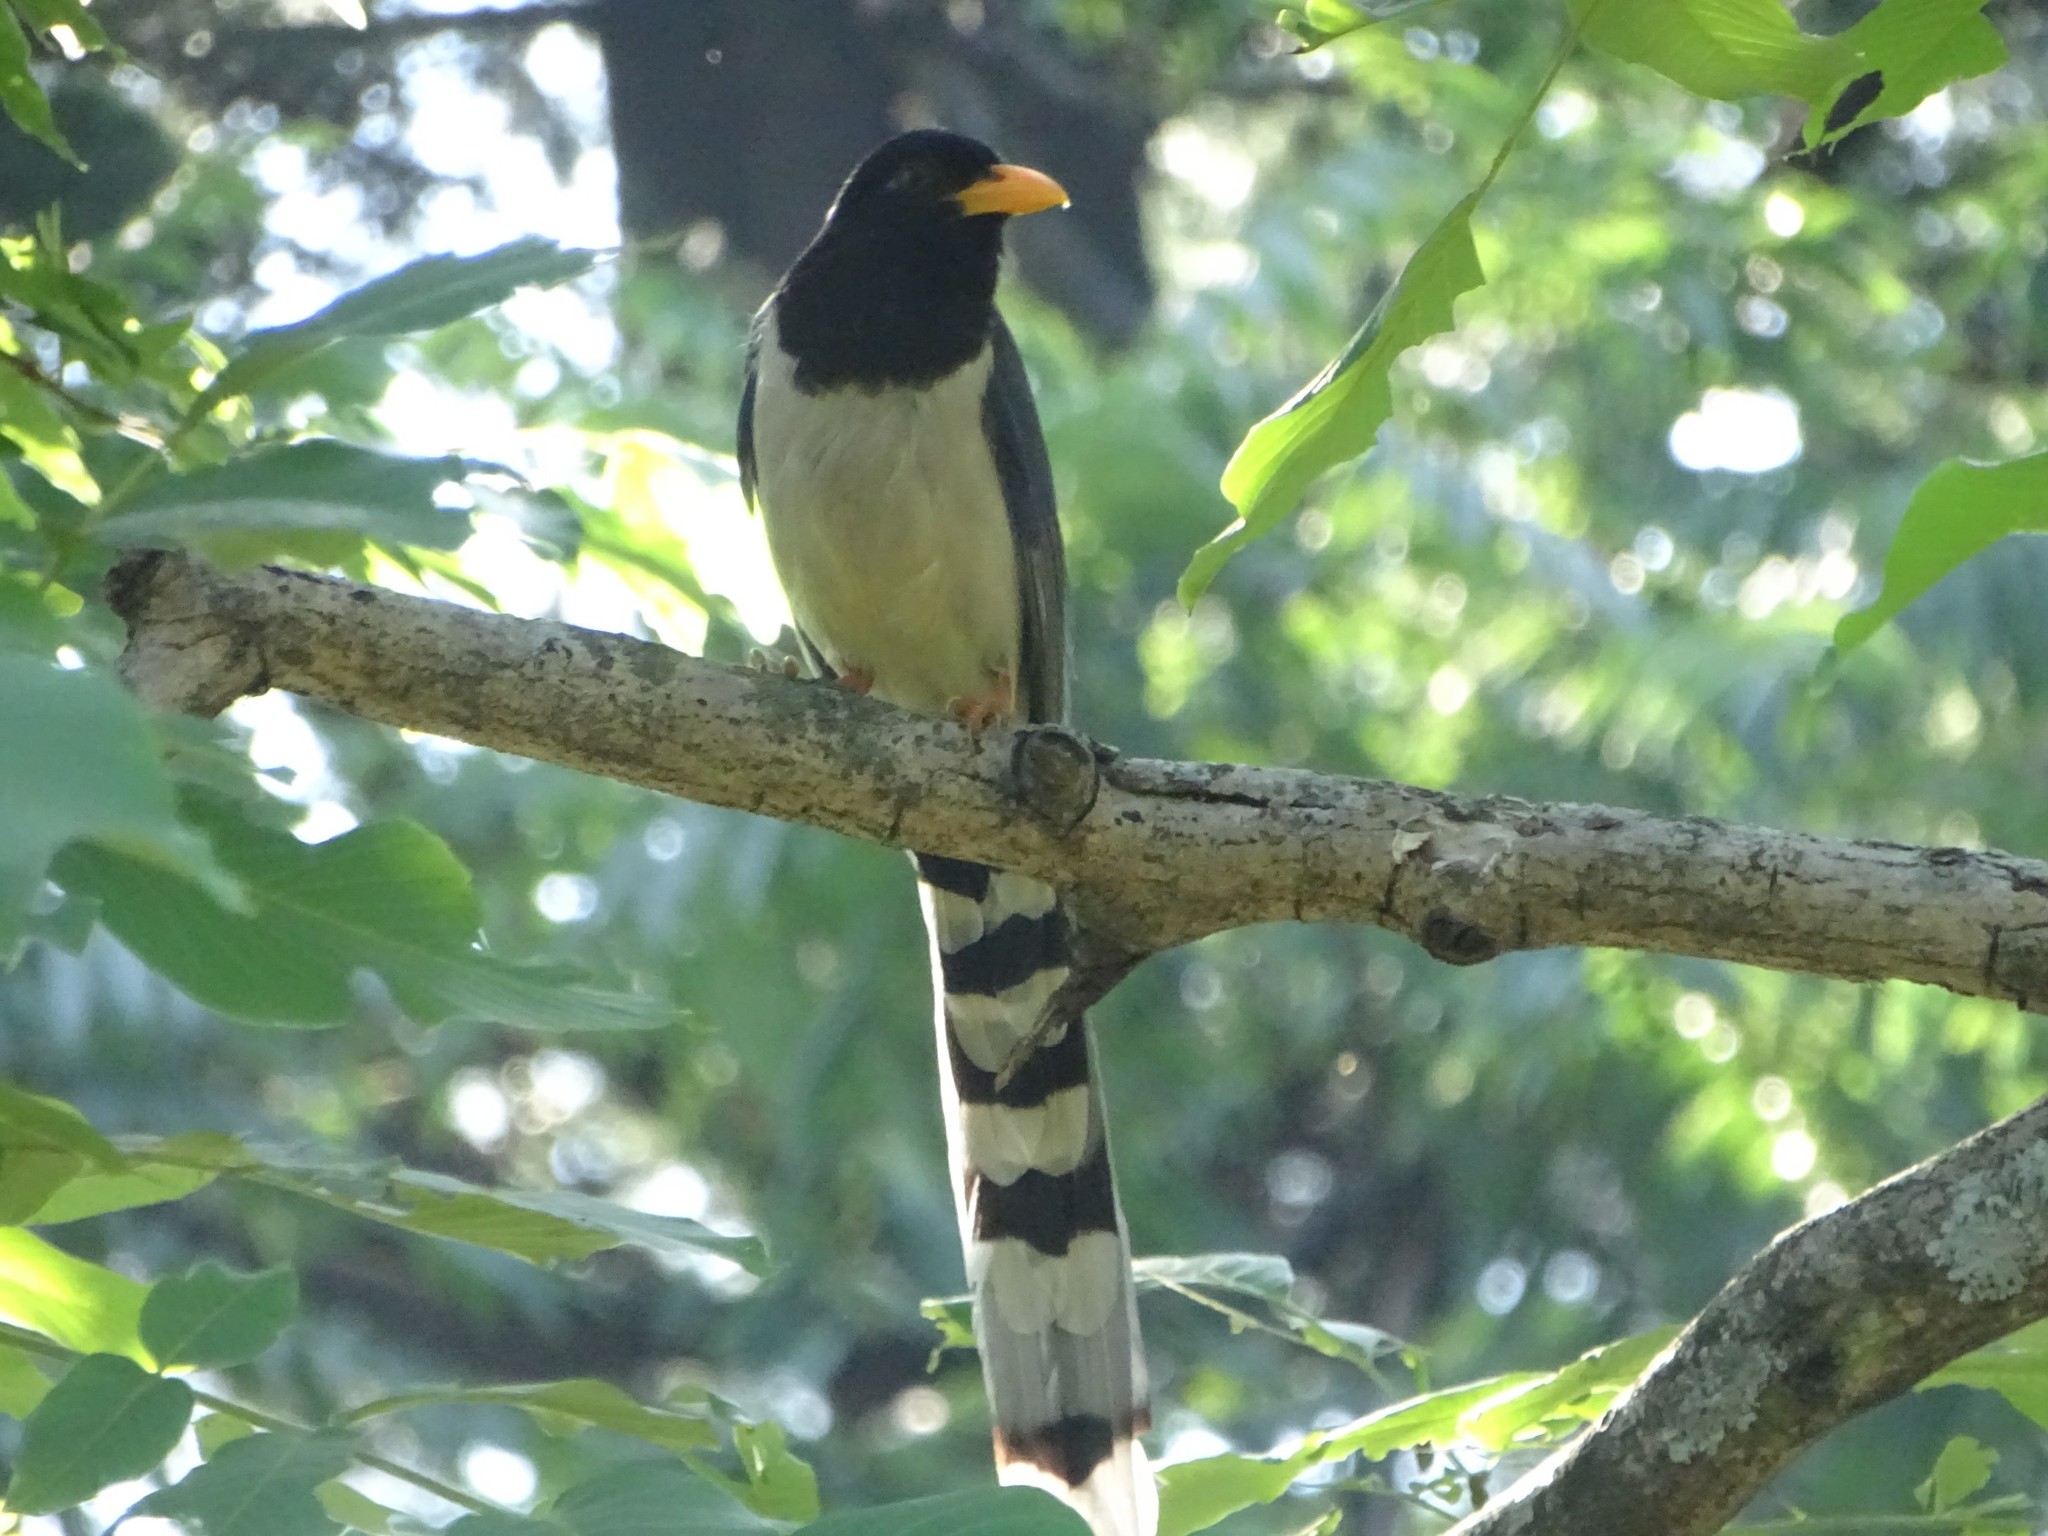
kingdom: Animalia
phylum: Chordata
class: Aves
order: Passeriformes
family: Corvidae
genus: Urocissa
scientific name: Urocissa erythroryncha
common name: Red-billed blue magpie
